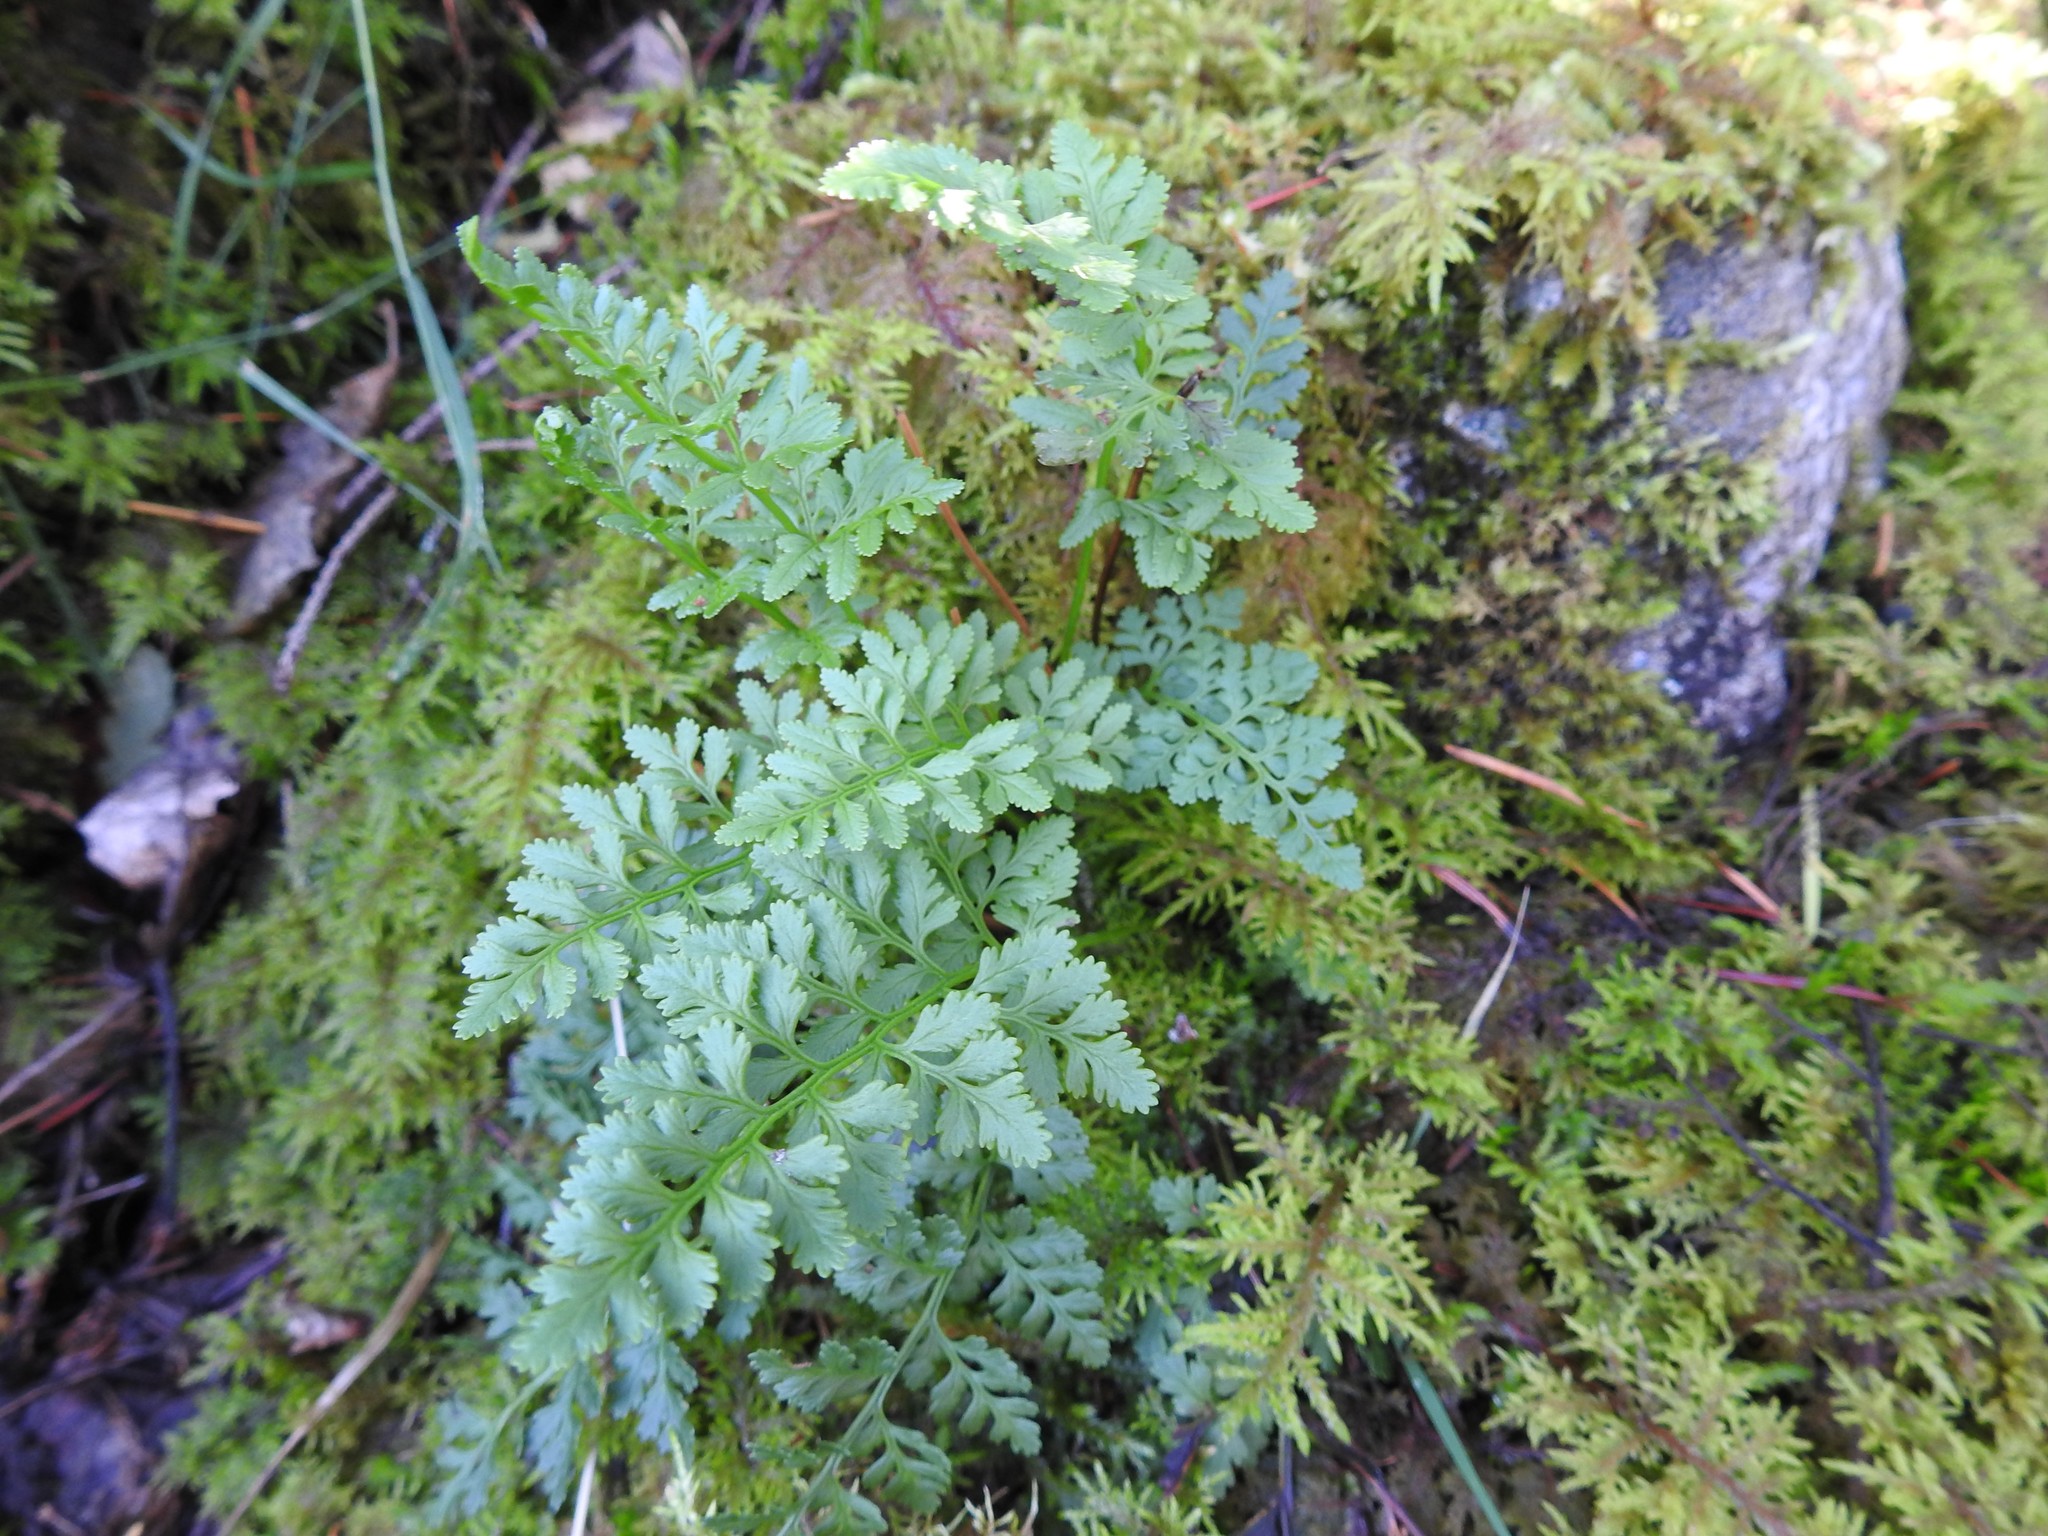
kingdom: Plantae
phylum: Tracheophyta
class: Polypodiopsida
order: Polypodiales
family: Pteridaceae
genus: Cryptogramma
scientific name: Cryptogramma acrostichoides
